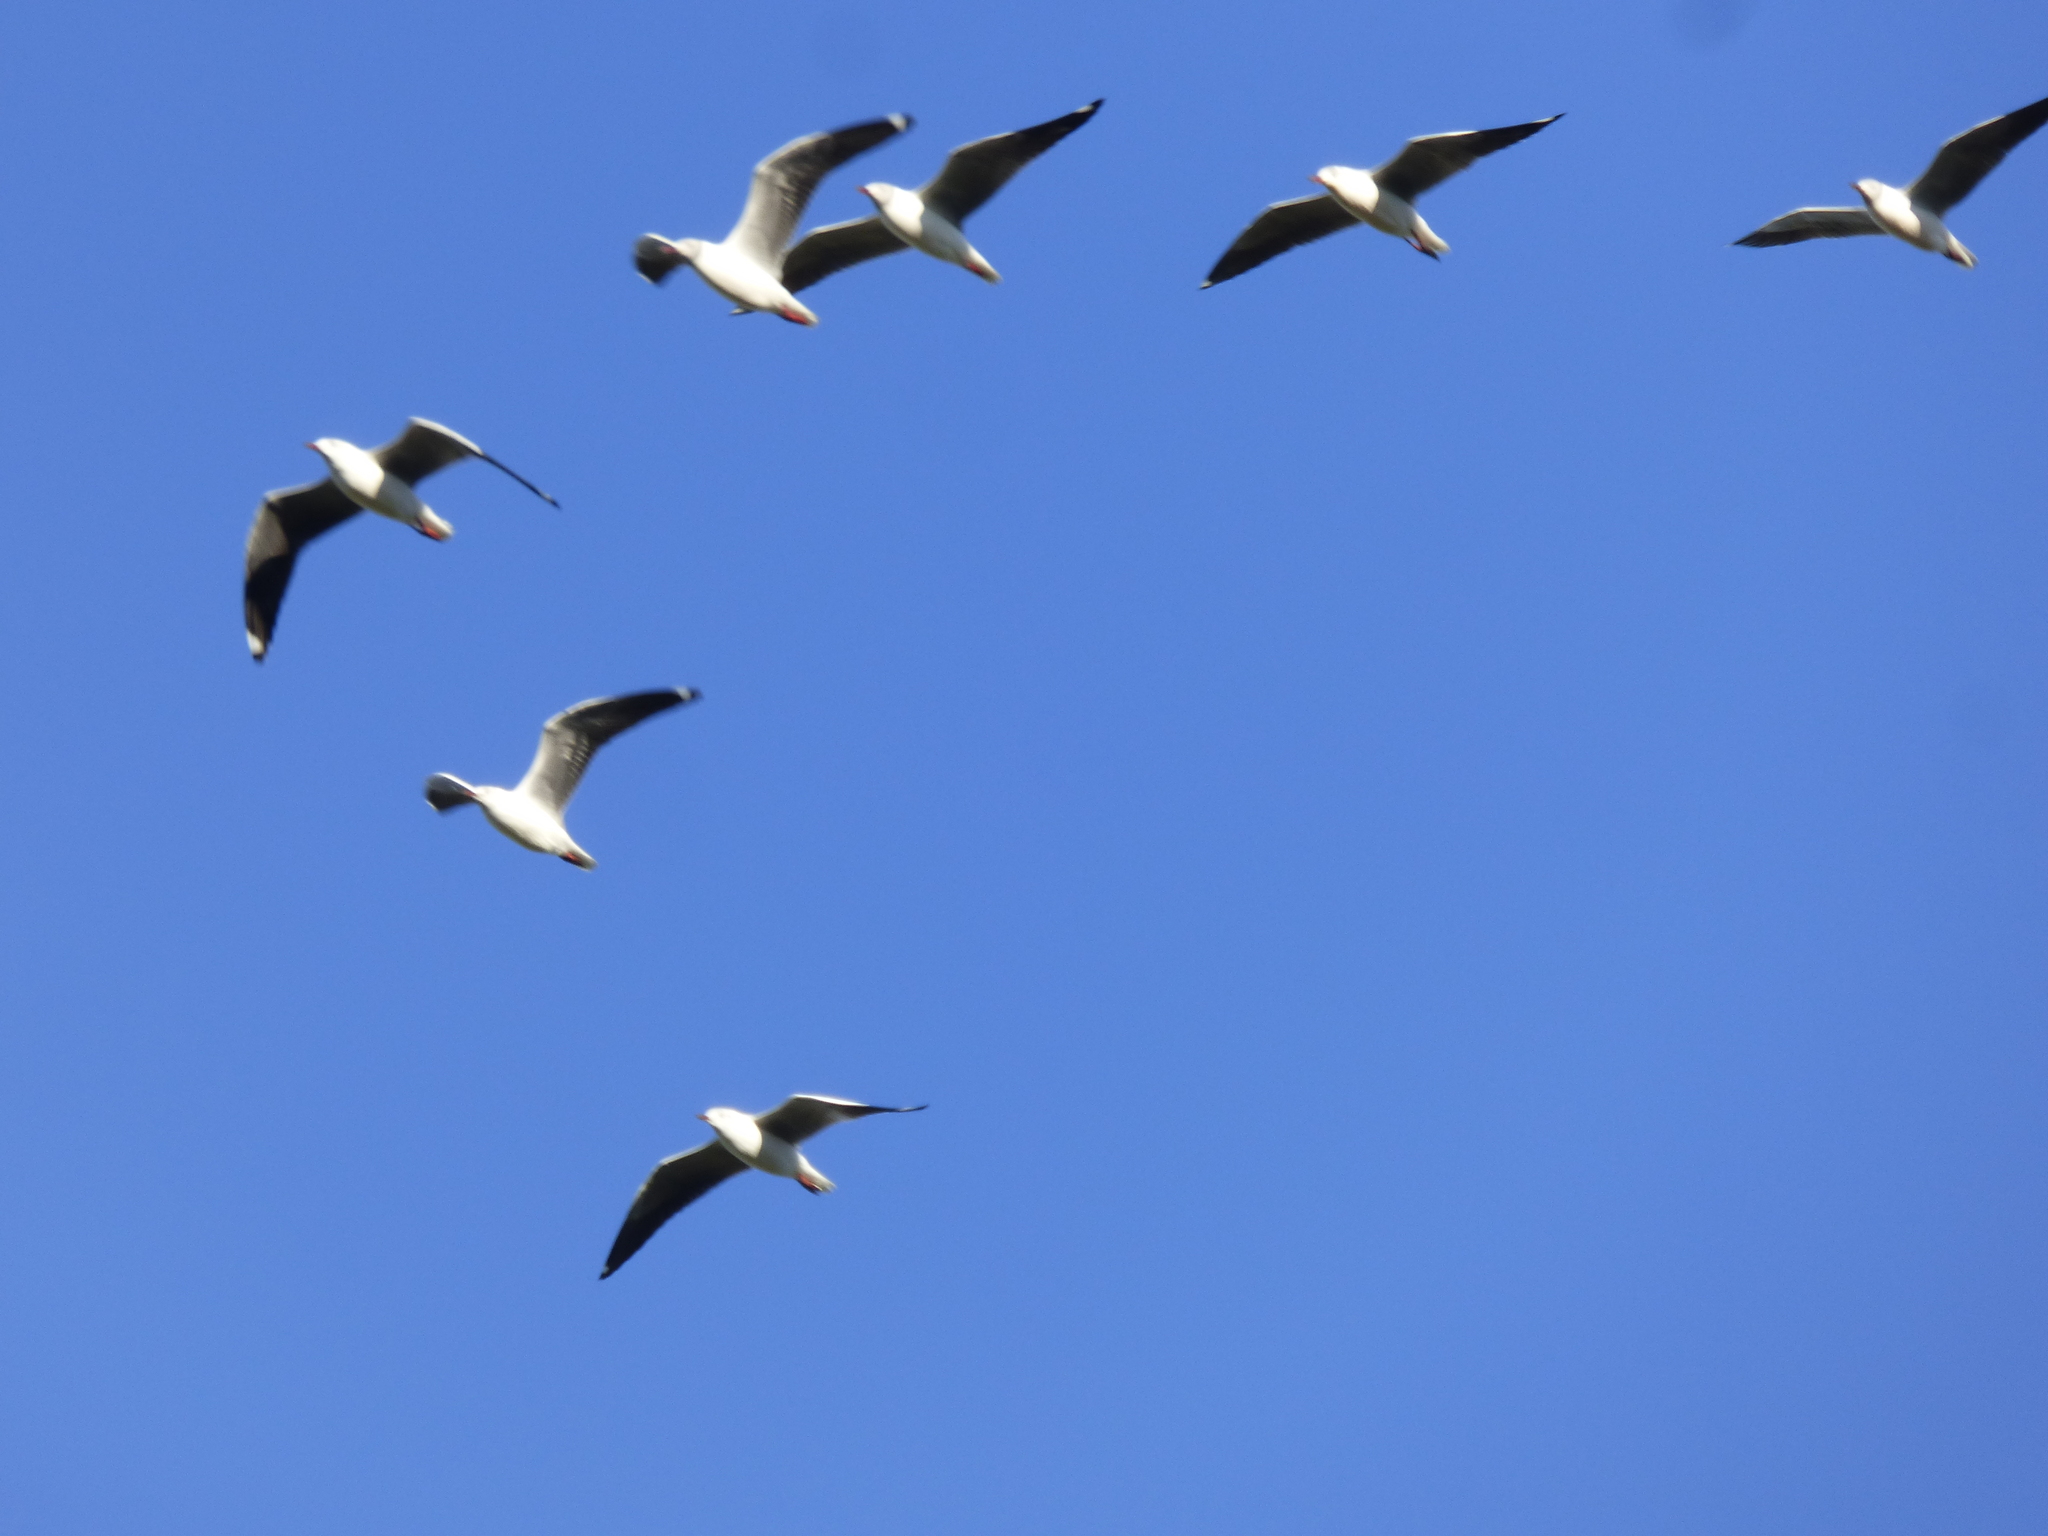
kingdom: Animalia
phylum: Chordata
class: Aves
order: Charadriiformes
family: Laridae
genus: Chroicocephalus
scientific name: Chroicocephalus cirrocephalus
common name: Grey-headed gull
